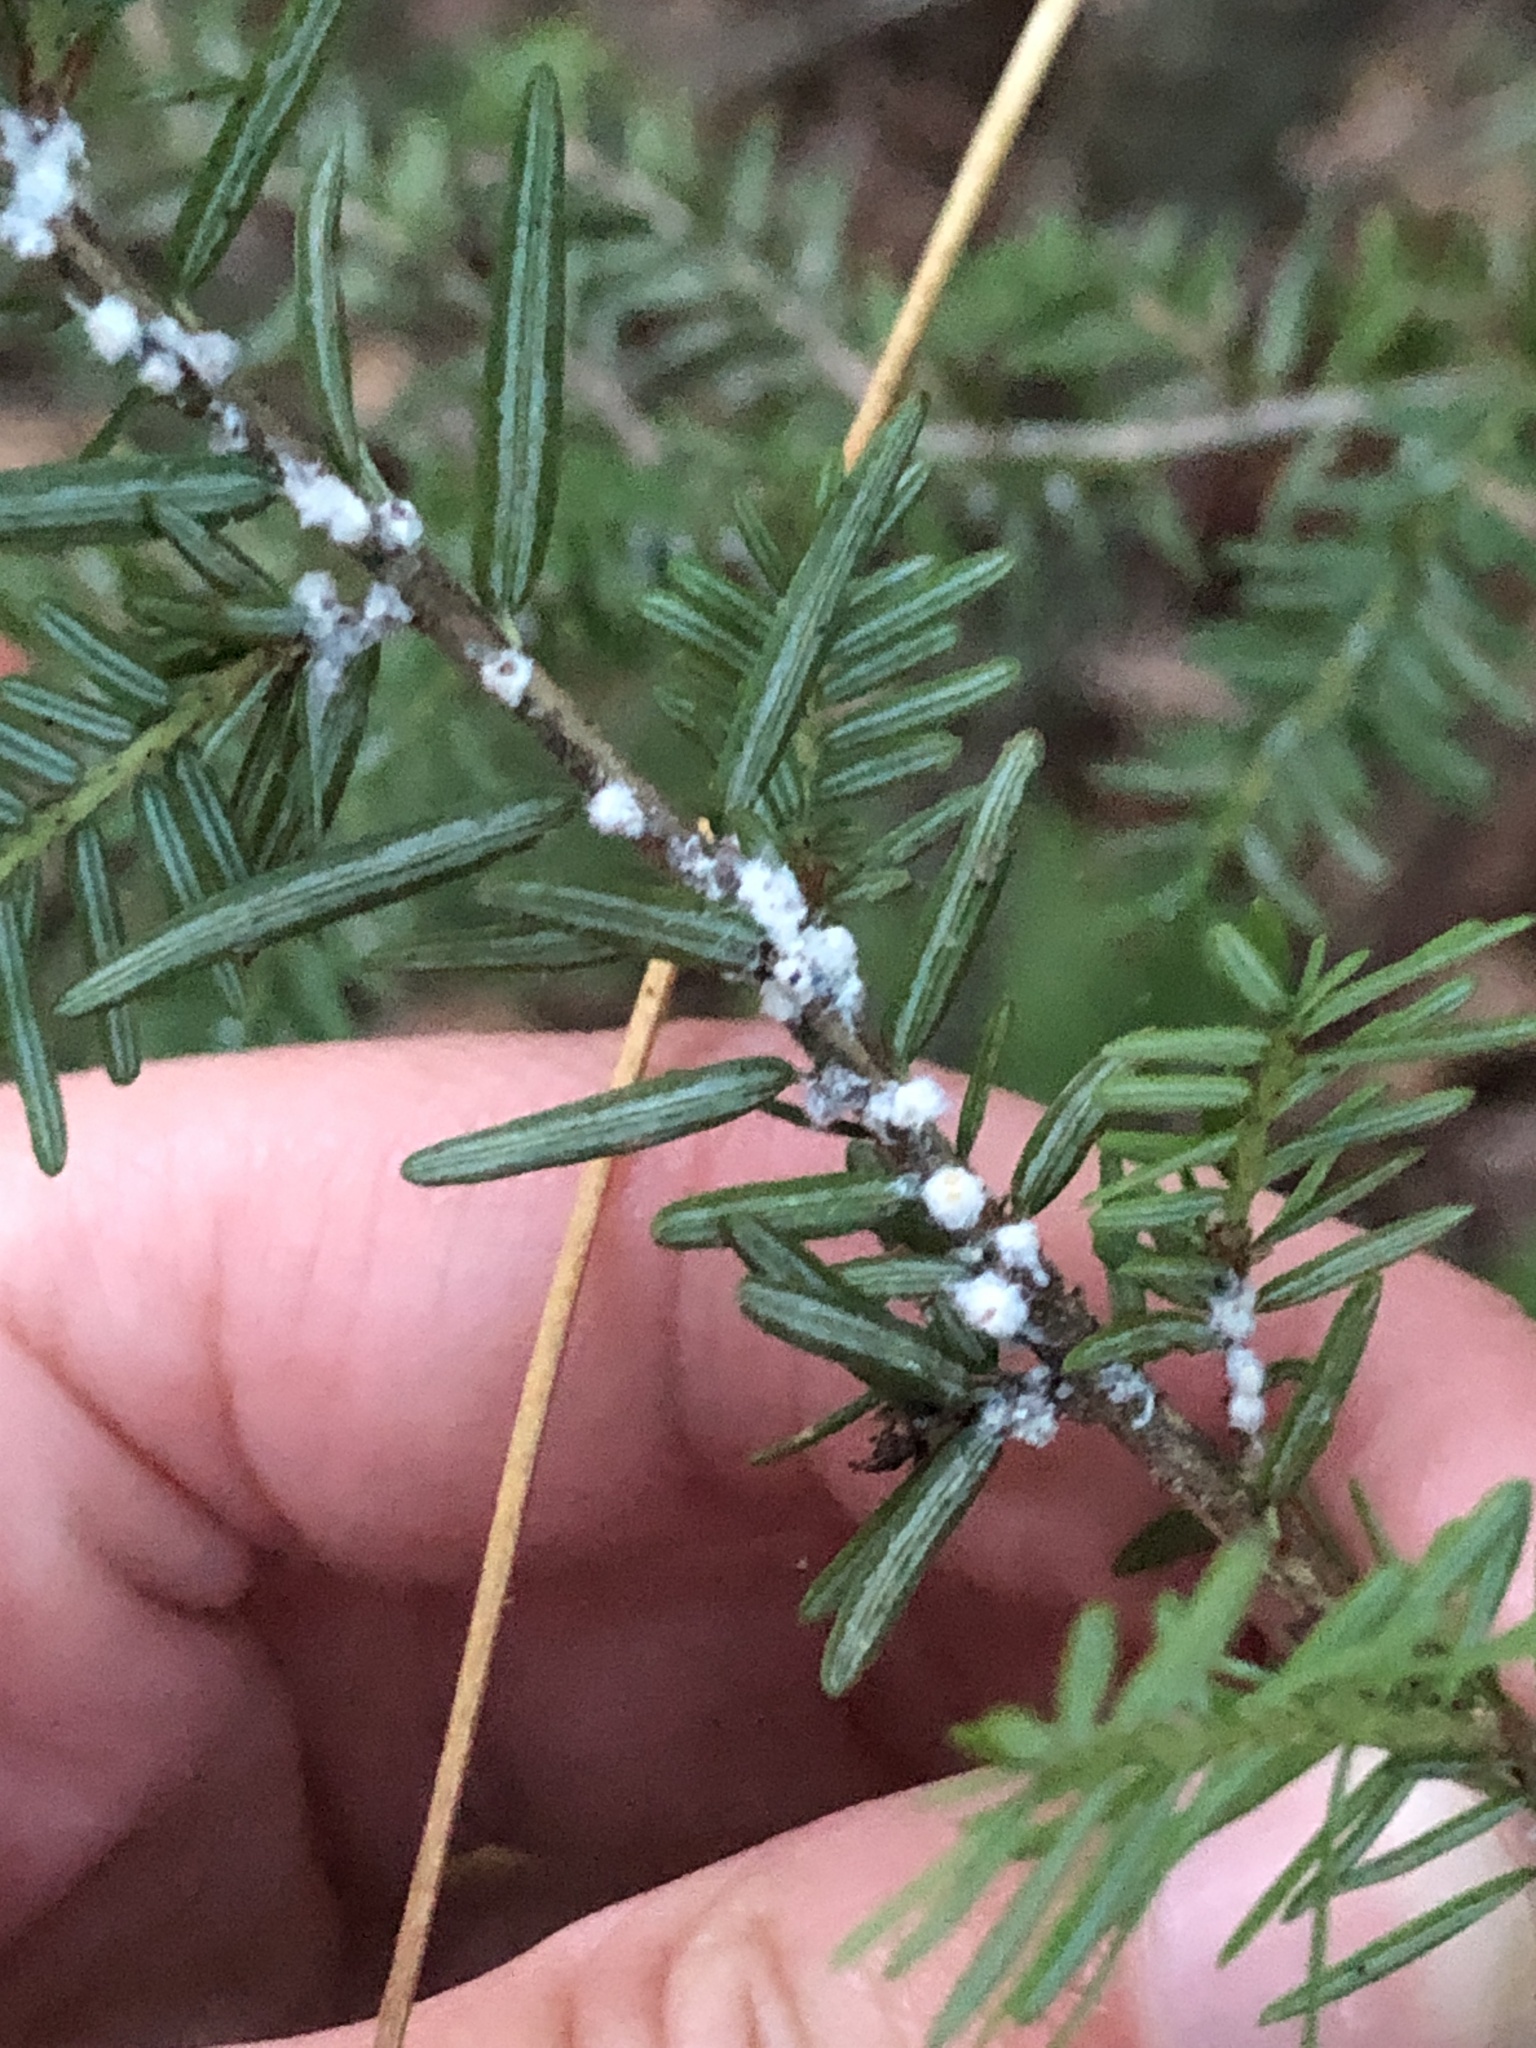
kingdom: Animalia
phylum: Arthropoda
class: Insecta
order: Hemiptera
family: Adelgidae
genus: Adelges
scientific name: Adelges tsugae
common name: Hemlock woolly adelgid
